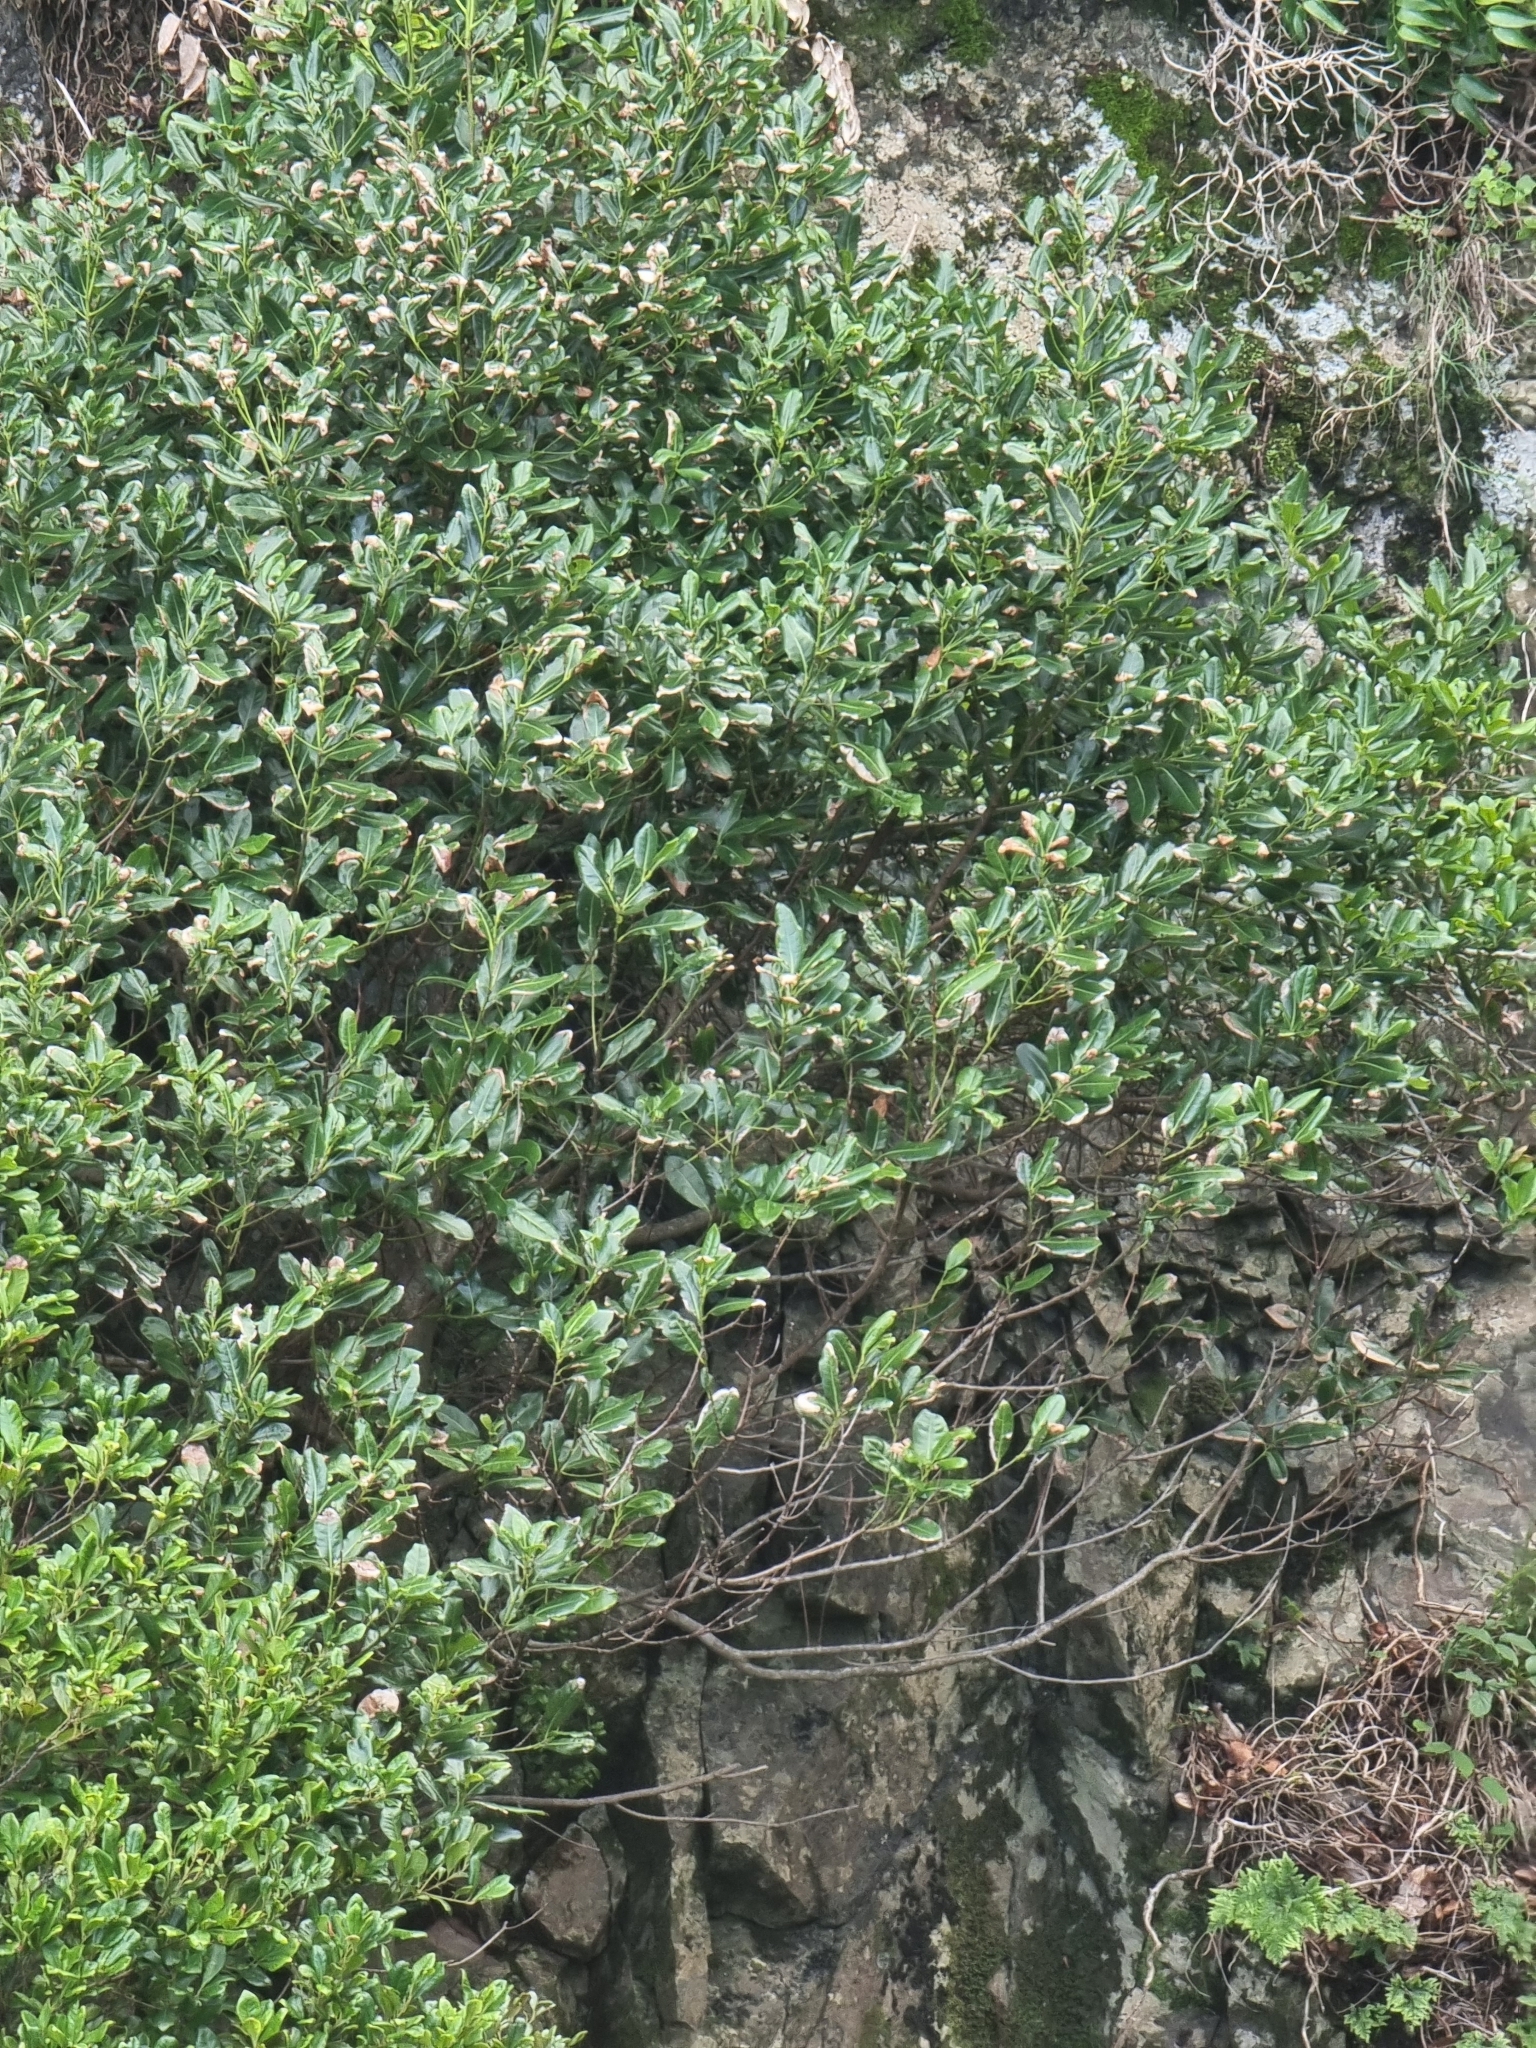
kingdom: Plantae
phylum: Tracheophyta
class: Magnoliopsida
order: Laurales
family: Lauraceae
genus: Apollonias
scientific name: Apollonias barbujana
